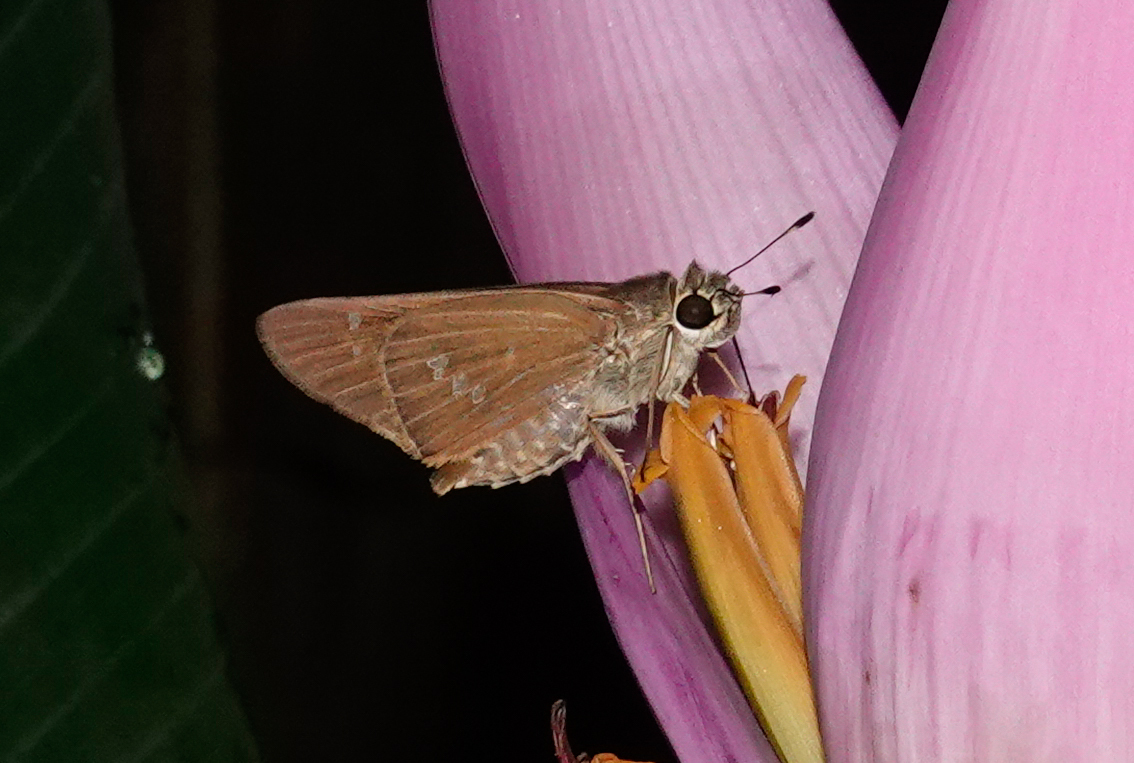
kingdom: Animalia
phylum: Arthropoda
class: Insecta
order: Lepidoptera
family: Hesperiidae
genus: Calpodes
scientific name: Calpodes ethlius
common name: Brazilian skipper
